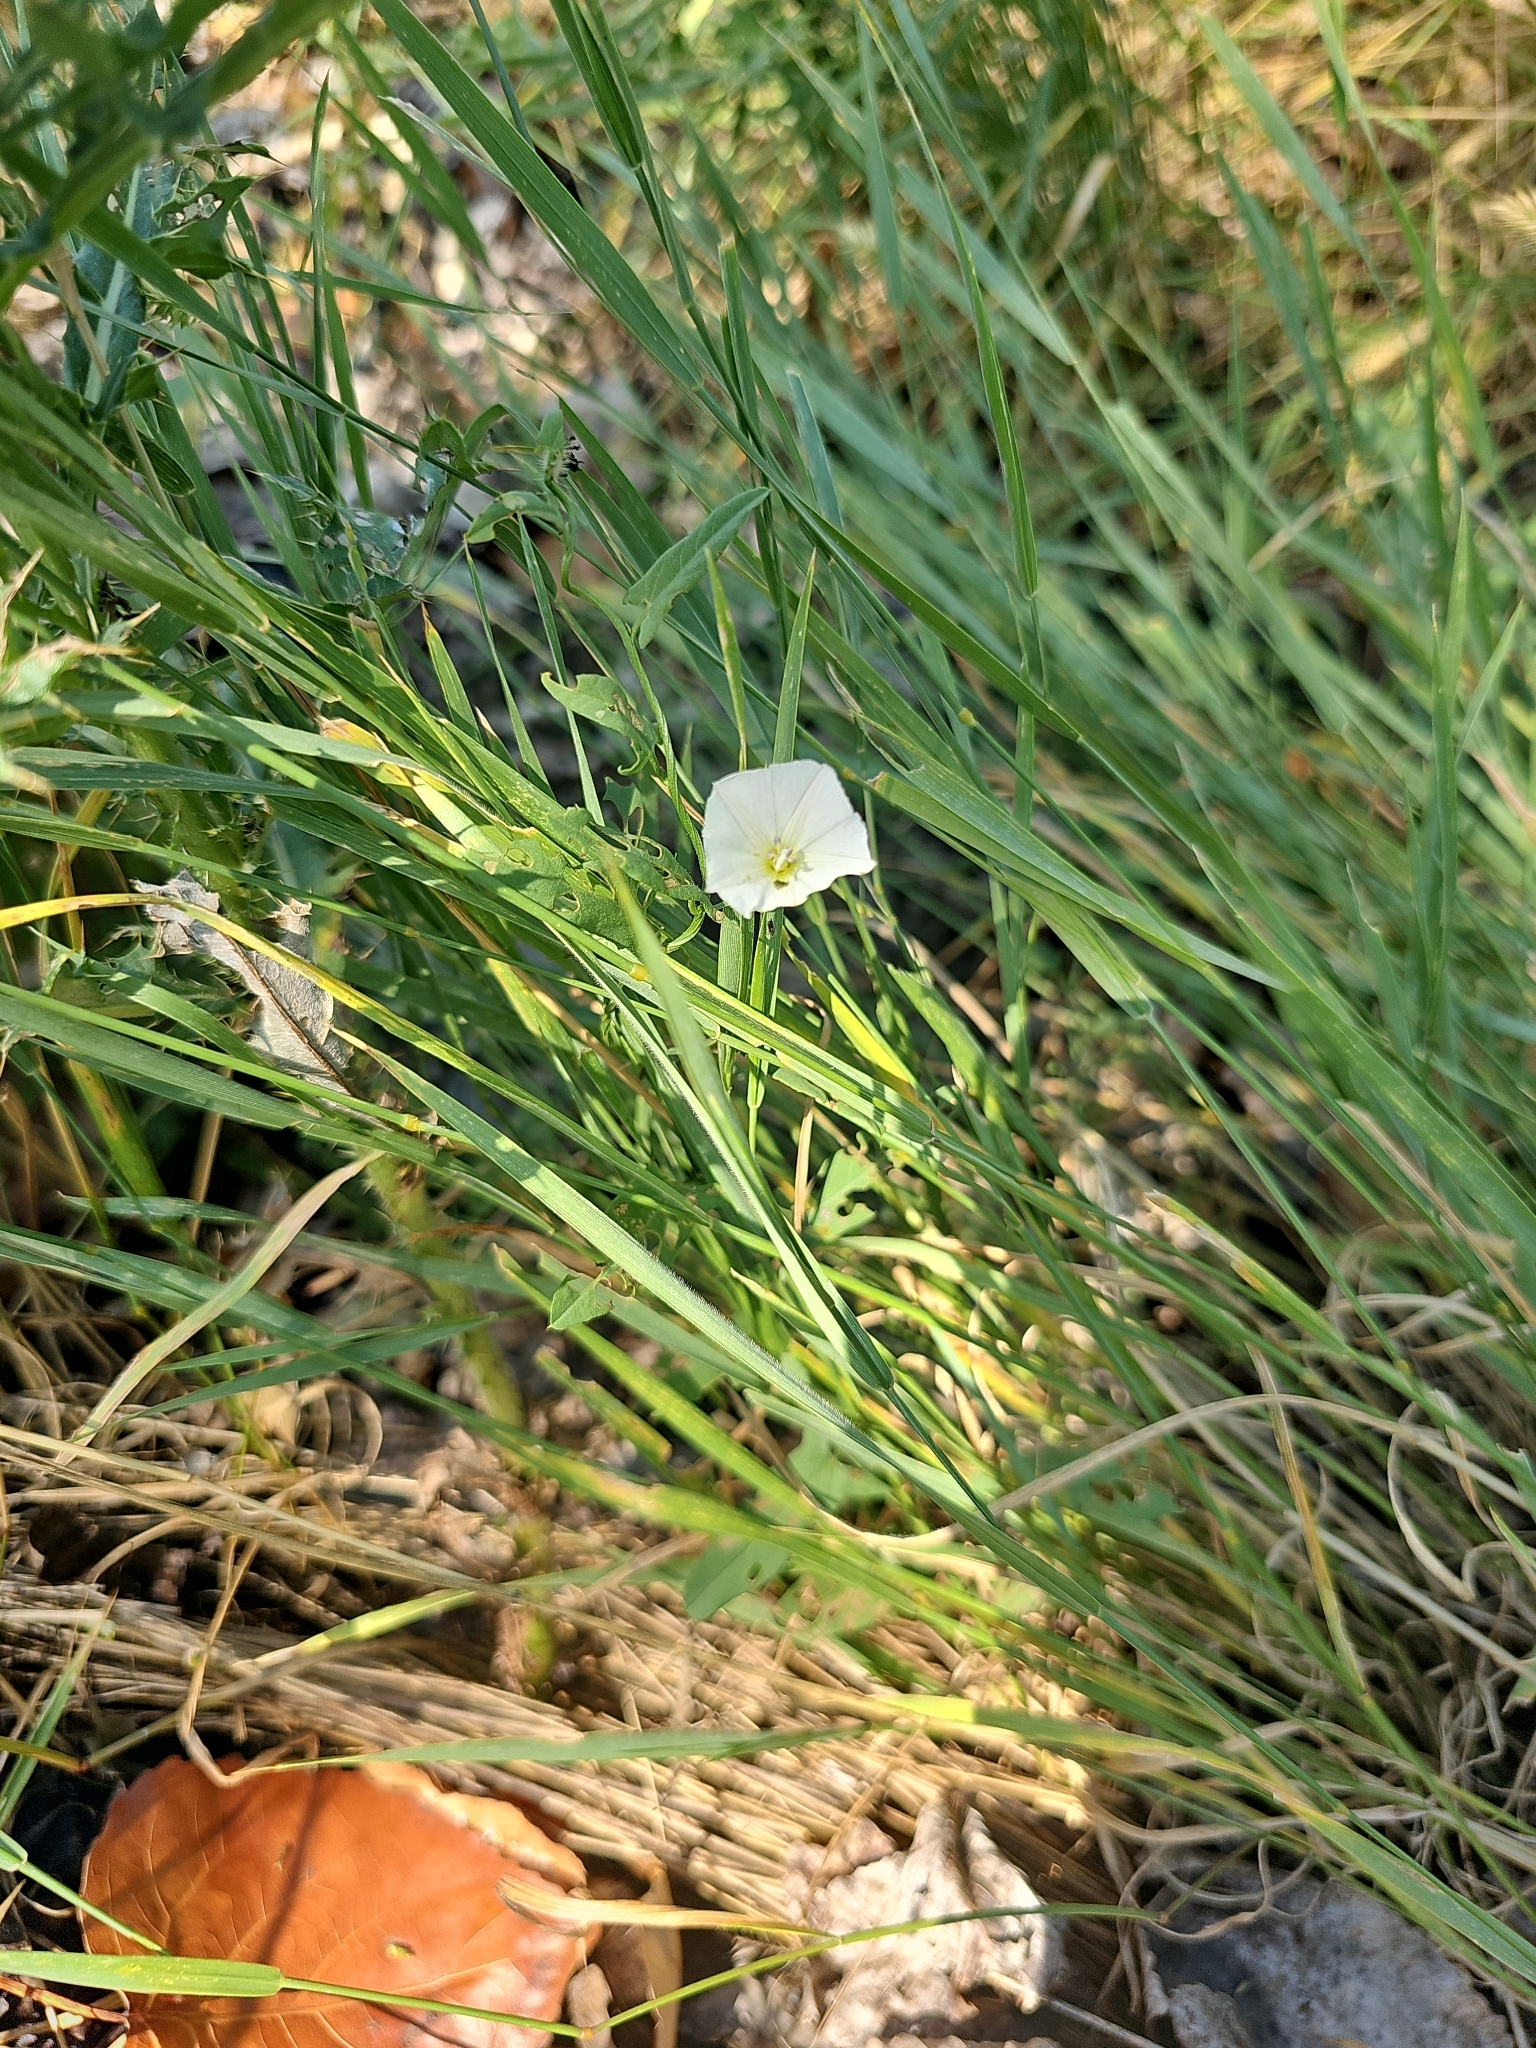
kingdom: Plantae
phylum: Tracheophyta
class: Magnoliopsida
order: Solanales
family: Convolvulaceae
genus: Convolvulus
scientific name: Convolvulus arvensis
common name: Field bindweed
